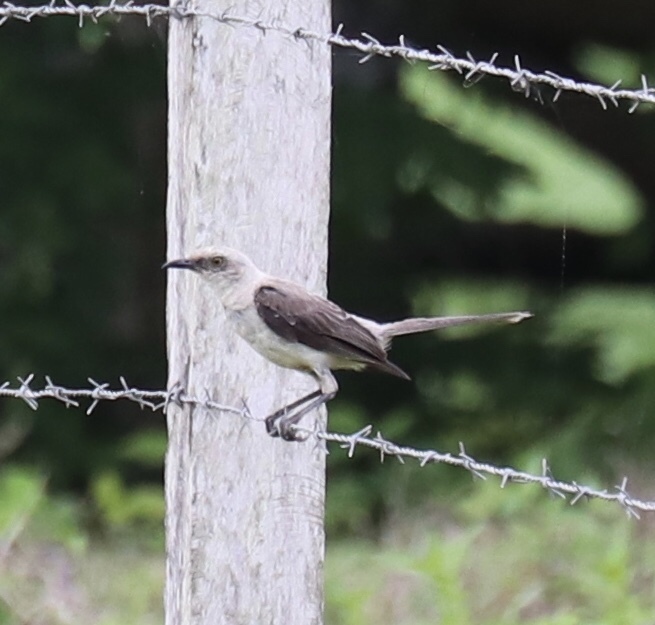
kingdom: Animalia
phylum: Chordata
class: Aves
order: Passeriformes
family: Mimidae
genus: Mimus
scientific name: Mimus gilvus
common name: Tropical mockingbird
